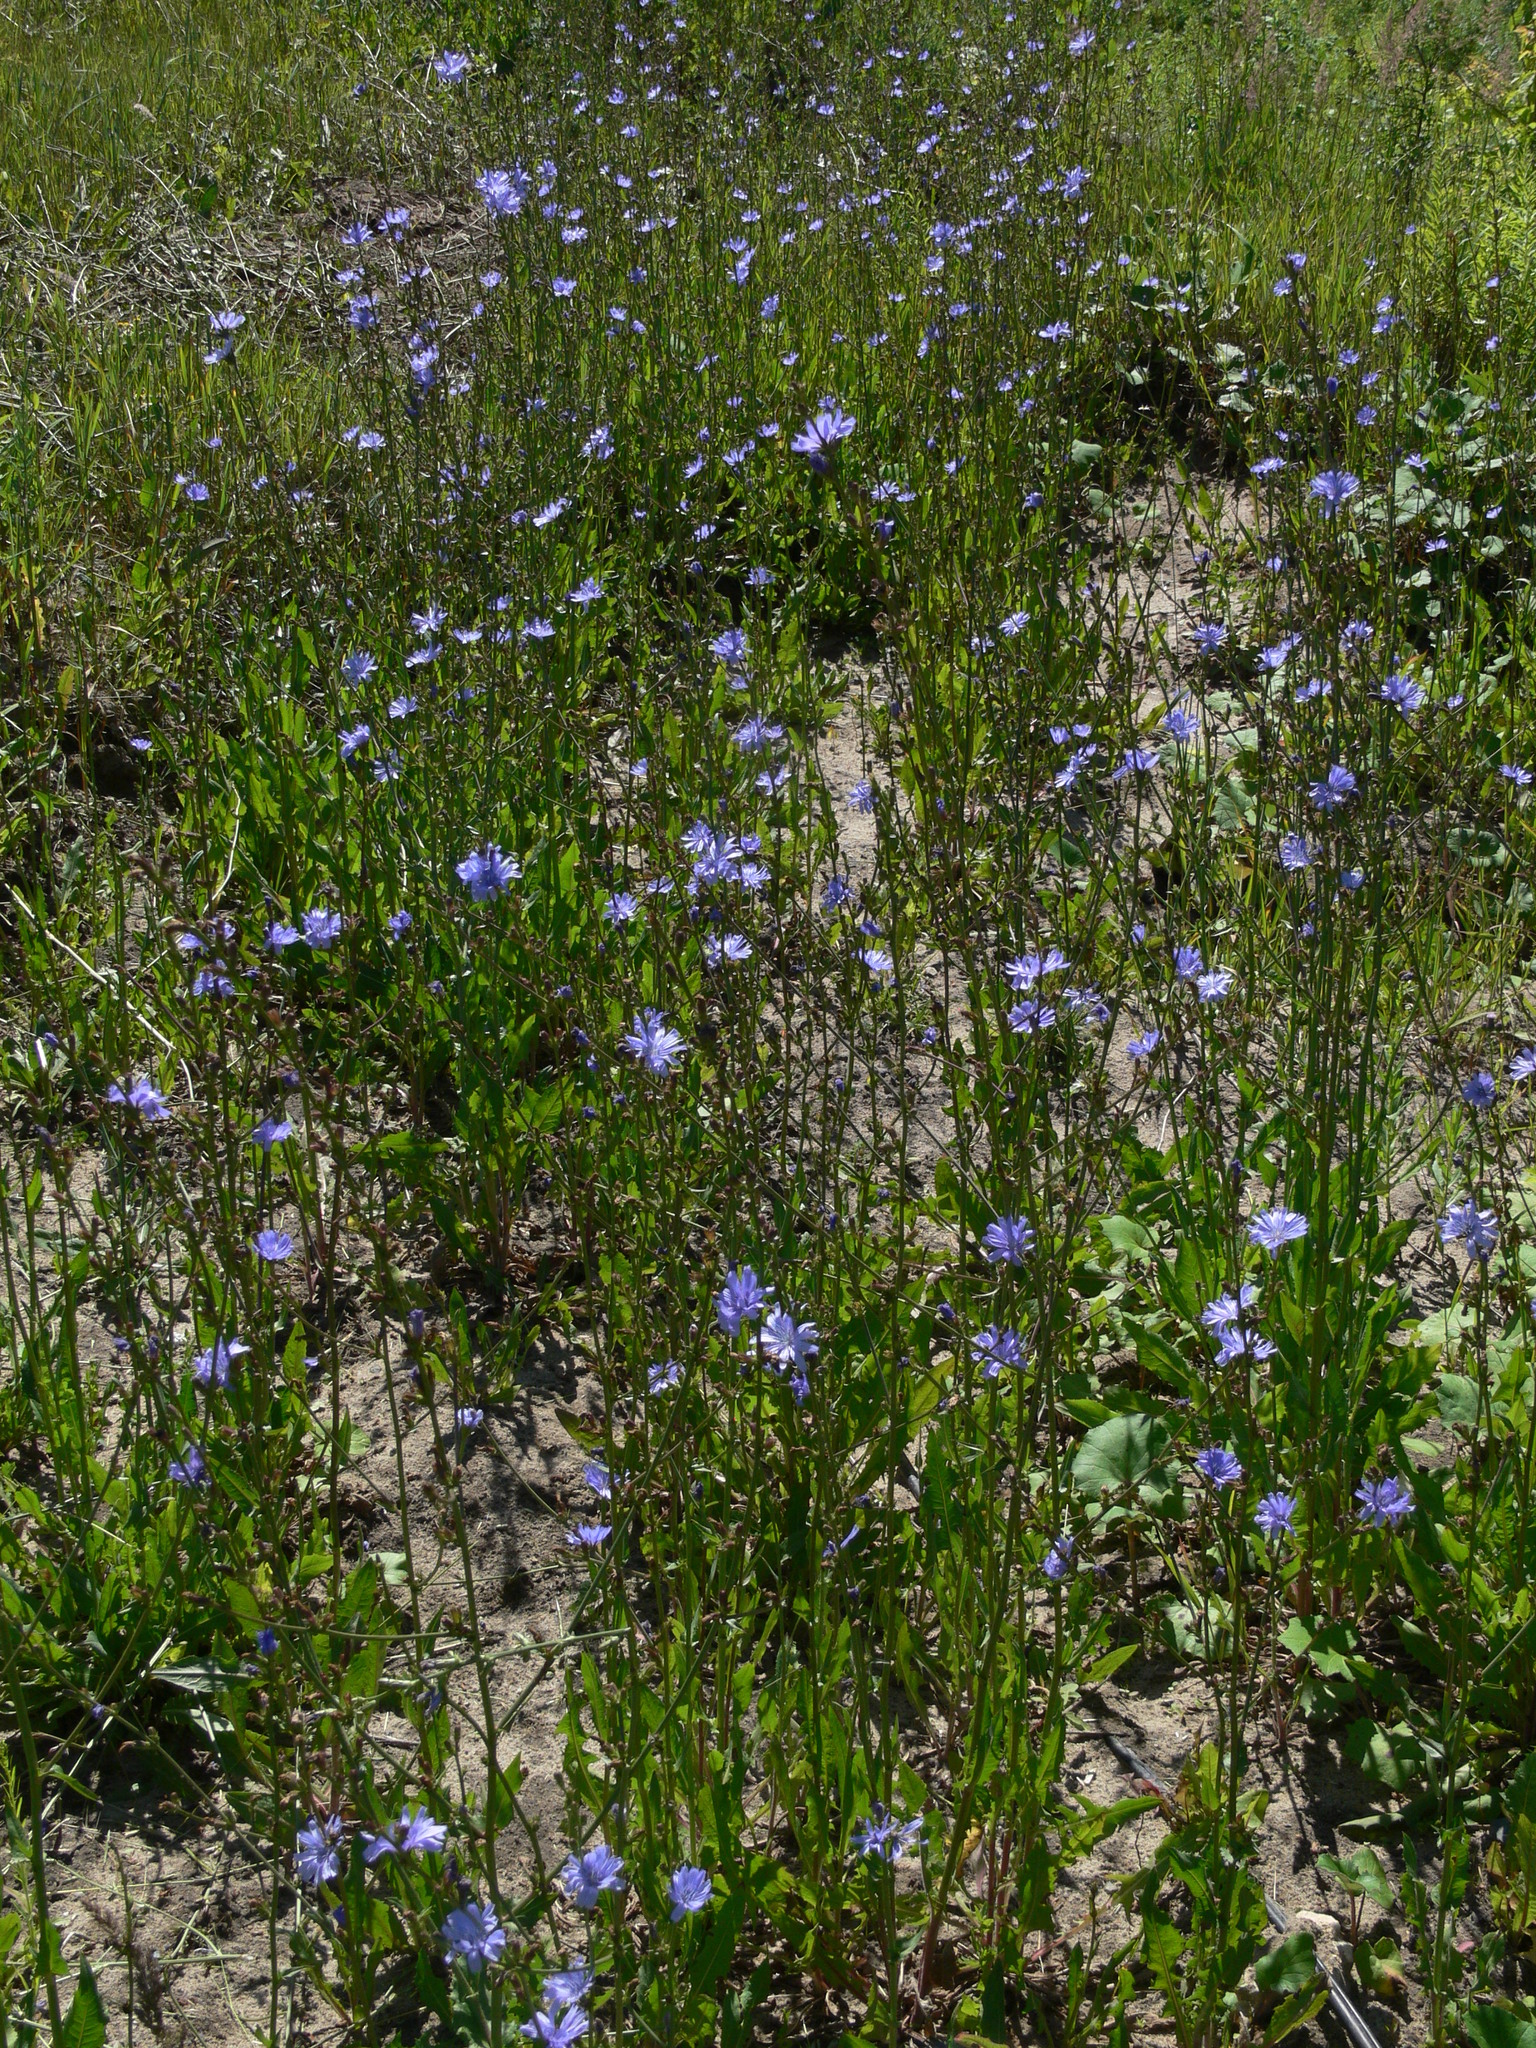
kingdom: Plantae
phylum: Tracheophyta
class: Magnoliopsida
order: Asterales
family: Asteraceae
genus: Cichorium
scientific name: Cichorium intybus
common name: Chicory
